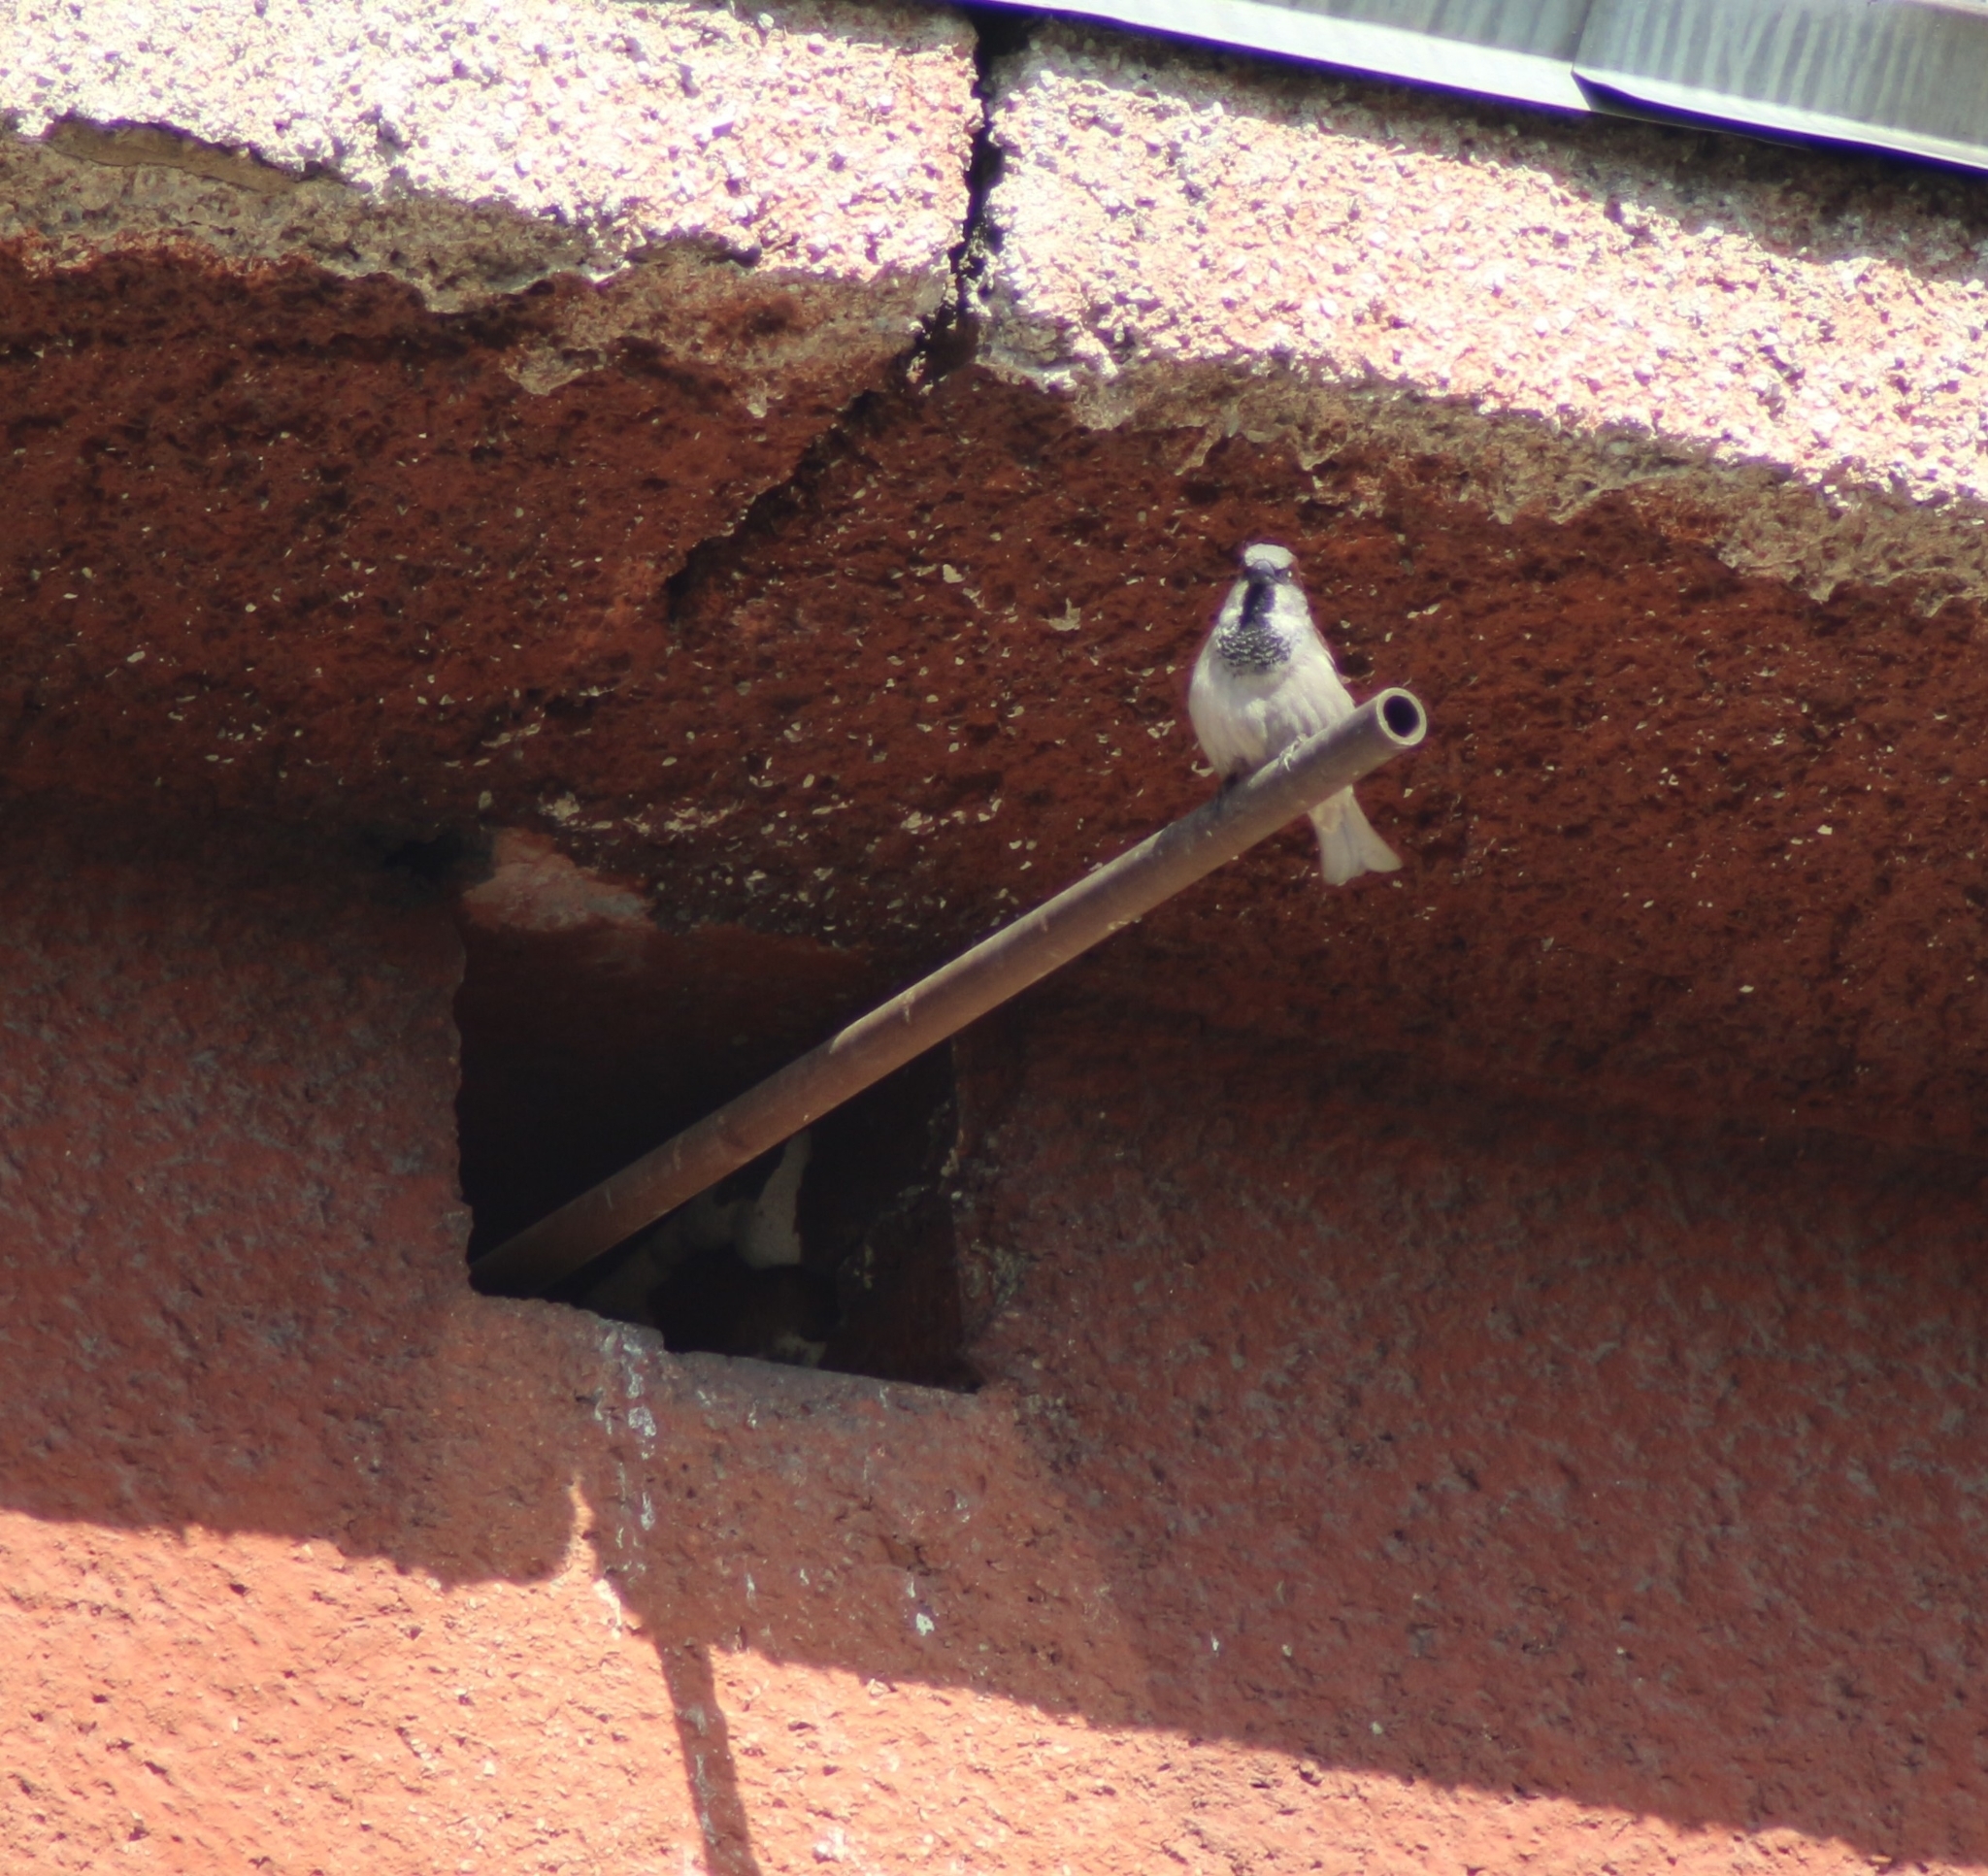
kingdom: Animalia
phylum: Chordata
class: Aves
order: Passeriformes
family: Passeridae
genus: Passer
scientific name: Passer domesticus
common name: House sparrow
